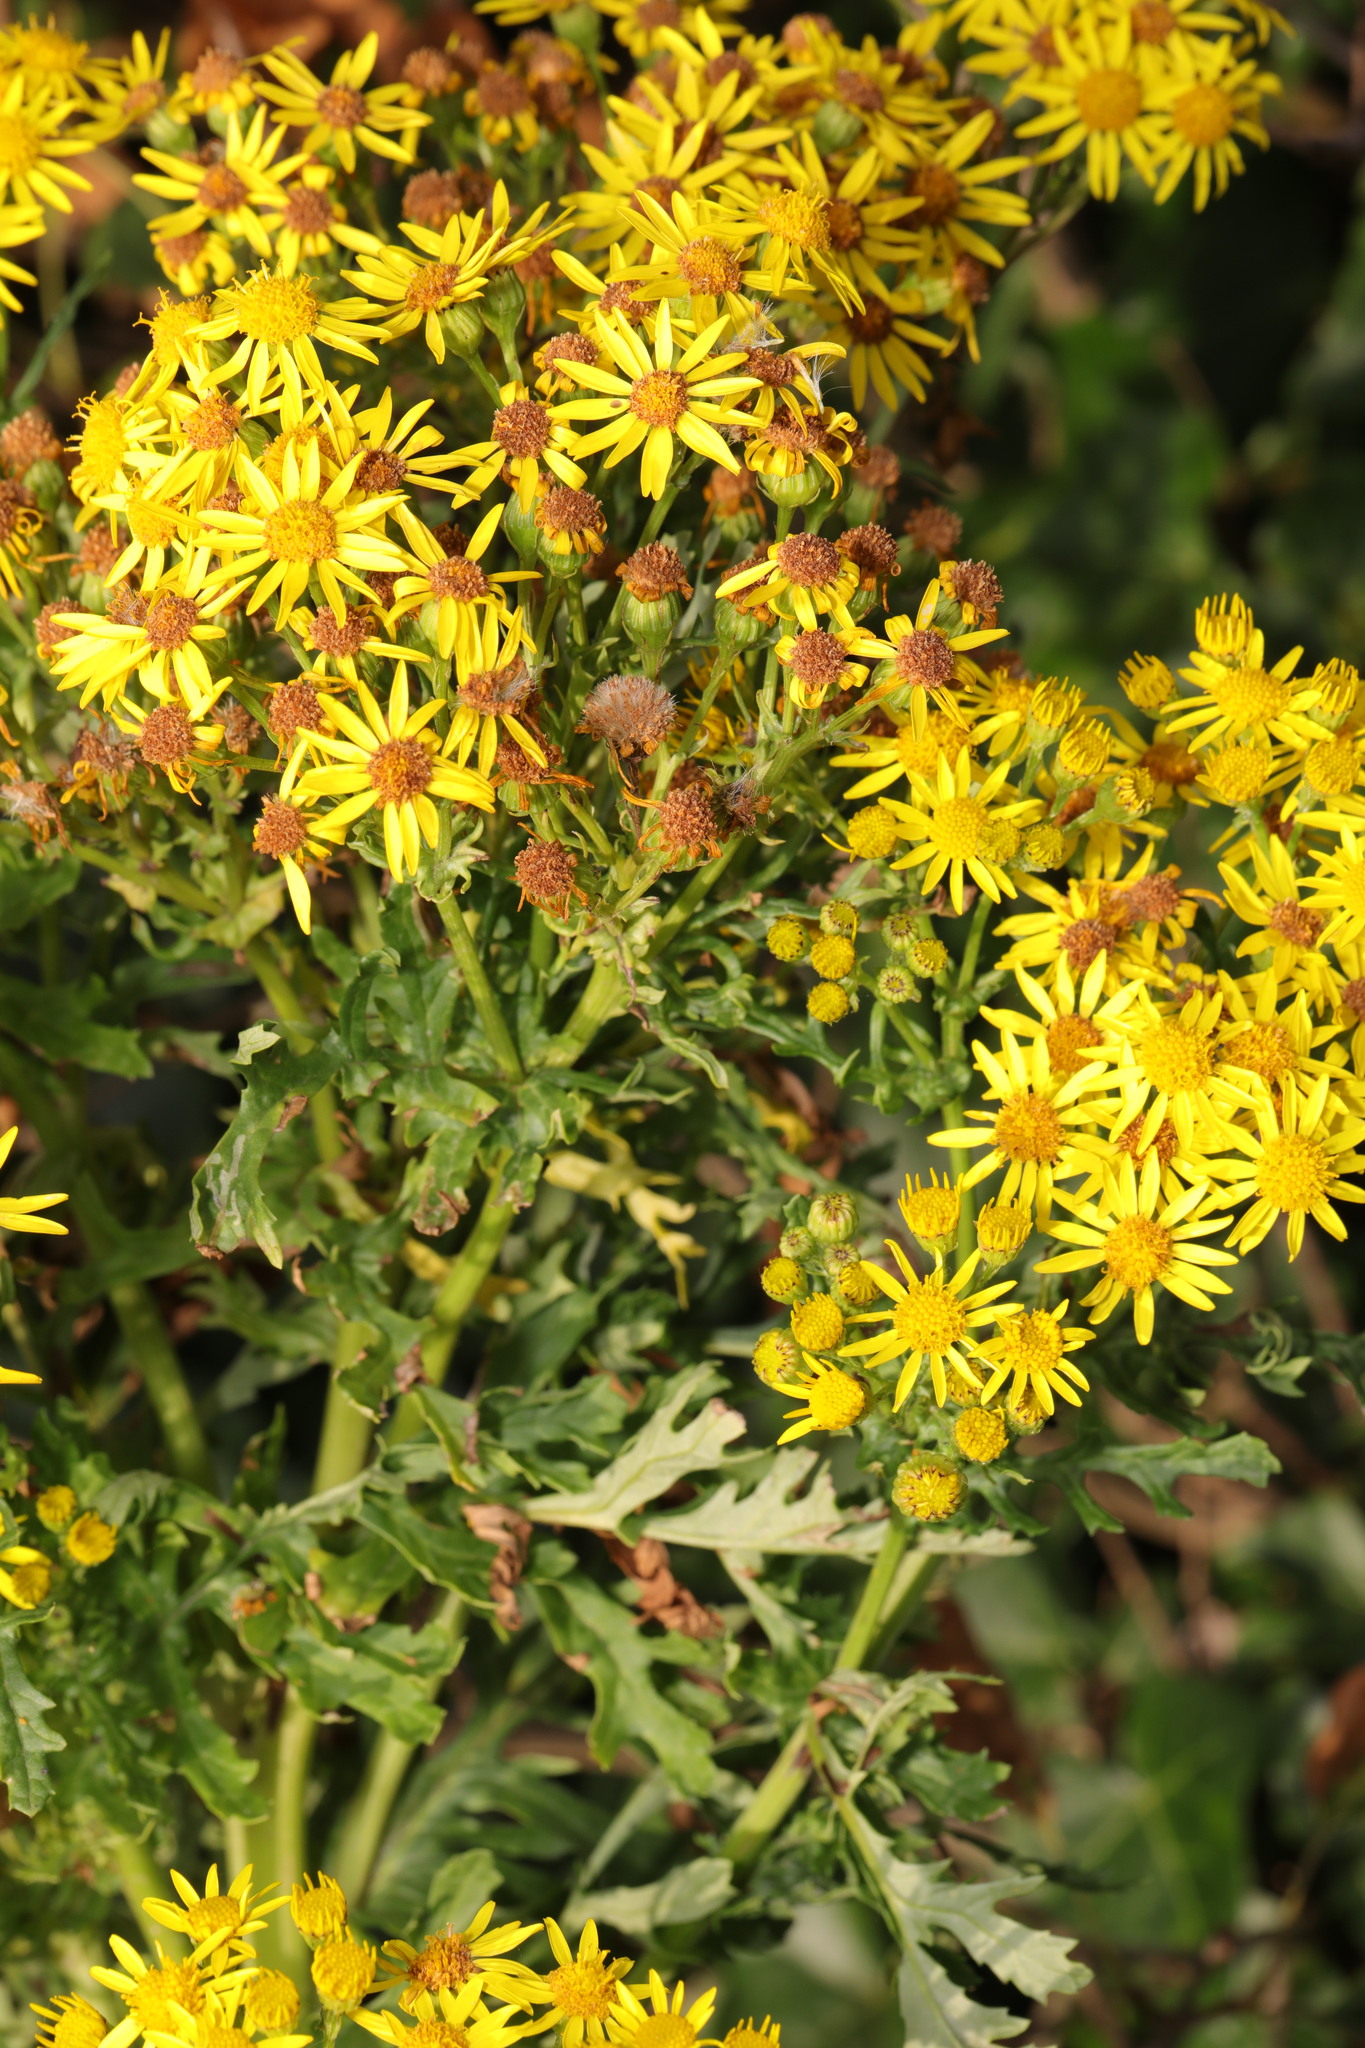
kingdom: Plantae
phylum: Tracheophyta
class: Magnoliopsida
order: Asterales
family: Asteraceae
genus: Jacobaea
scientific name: Jacobaea vulgaris
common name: Stinking willie
